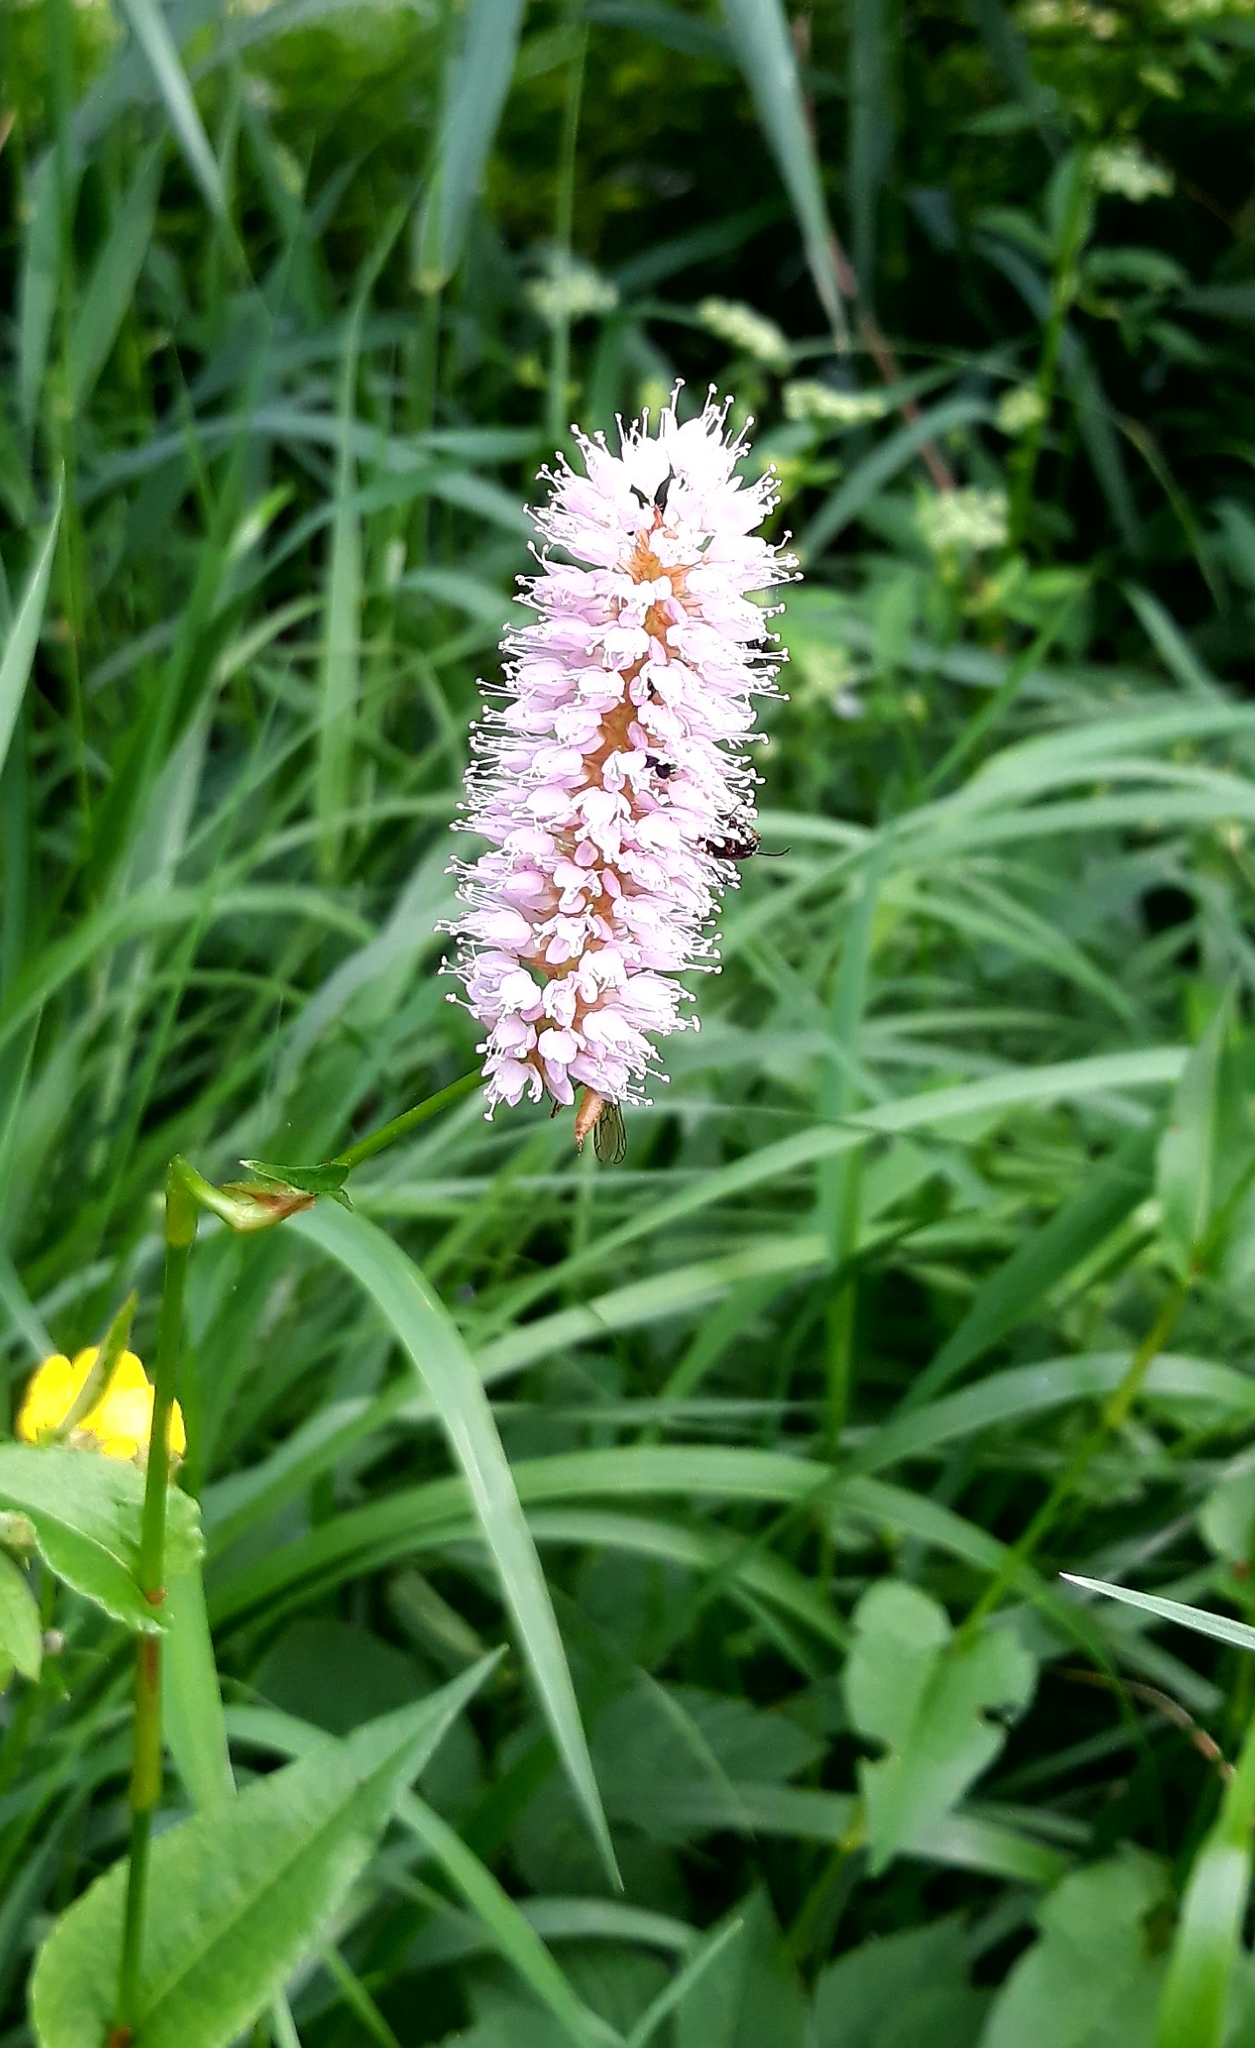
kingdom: Plantae
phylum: Tracheophyta
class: Magnoliopsida
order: Caryophyllales
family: Polygonaceae
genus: Bistorta
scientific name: Bistorta officinalis
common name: Common bistort
